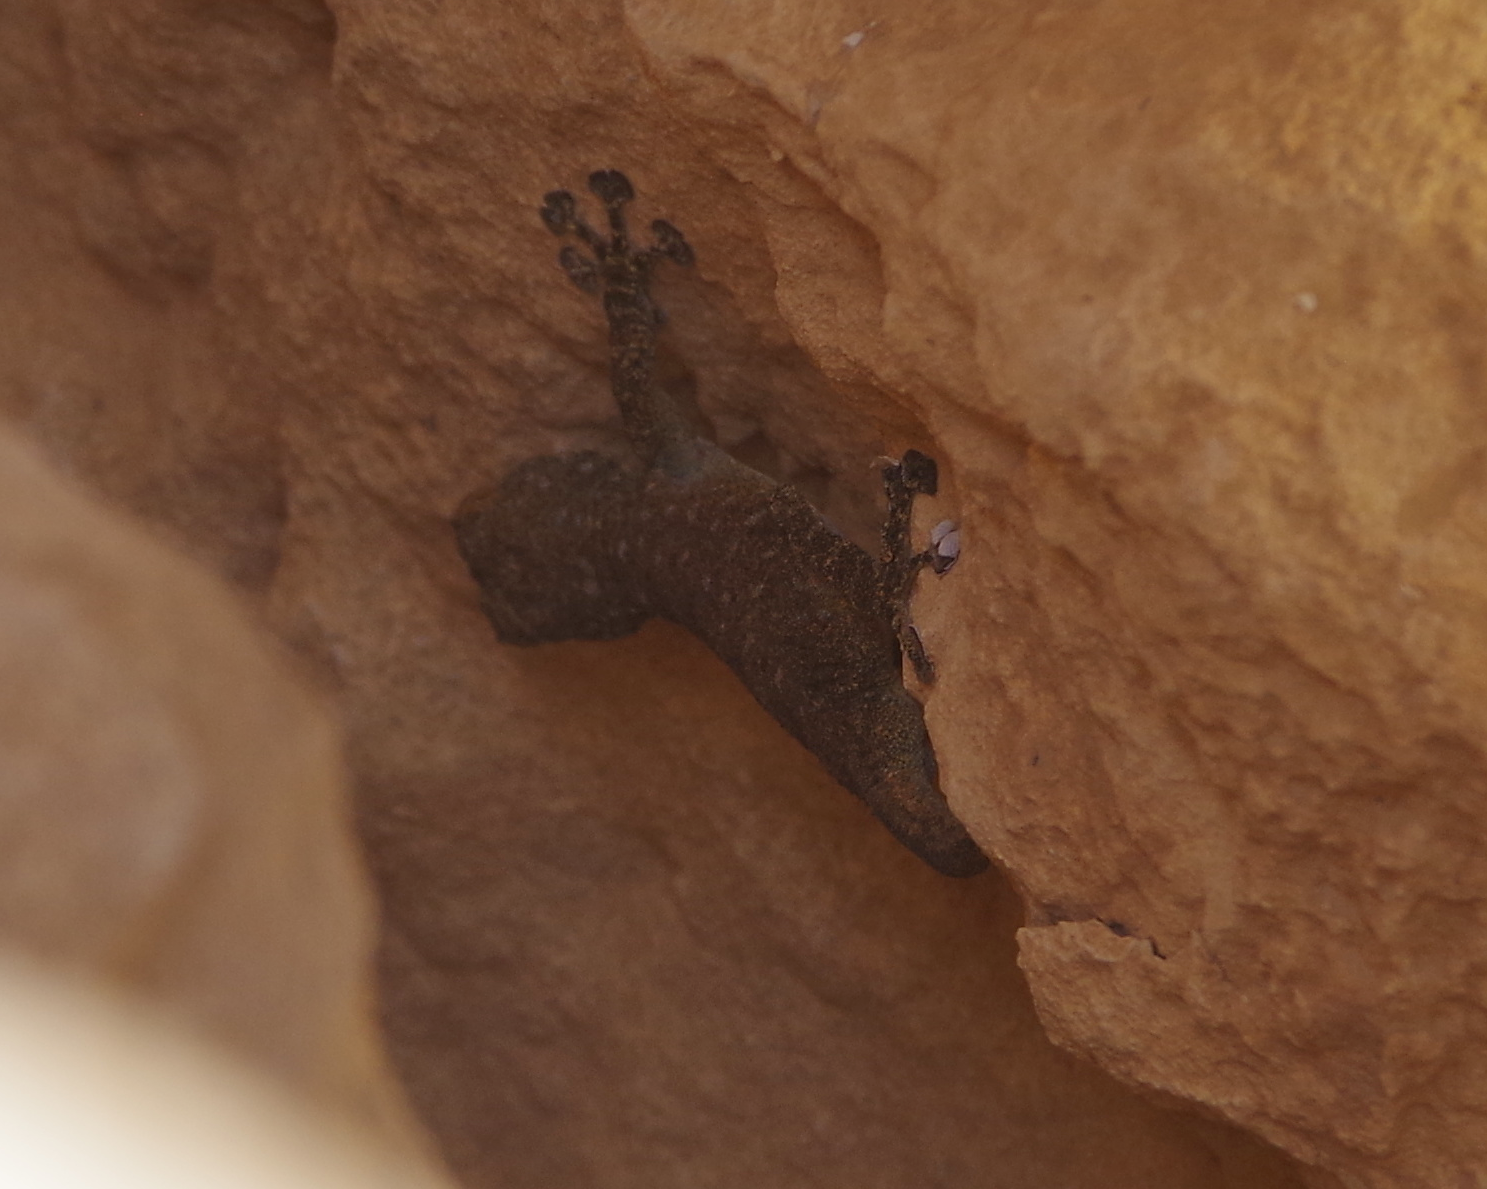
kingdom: Animalia
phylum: Chordata
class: Squamata
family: Phyllodactylidae
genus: Ptyodactylus
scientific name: Ptyodactylus guttatus
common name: Sinai fan-fingered gecko
